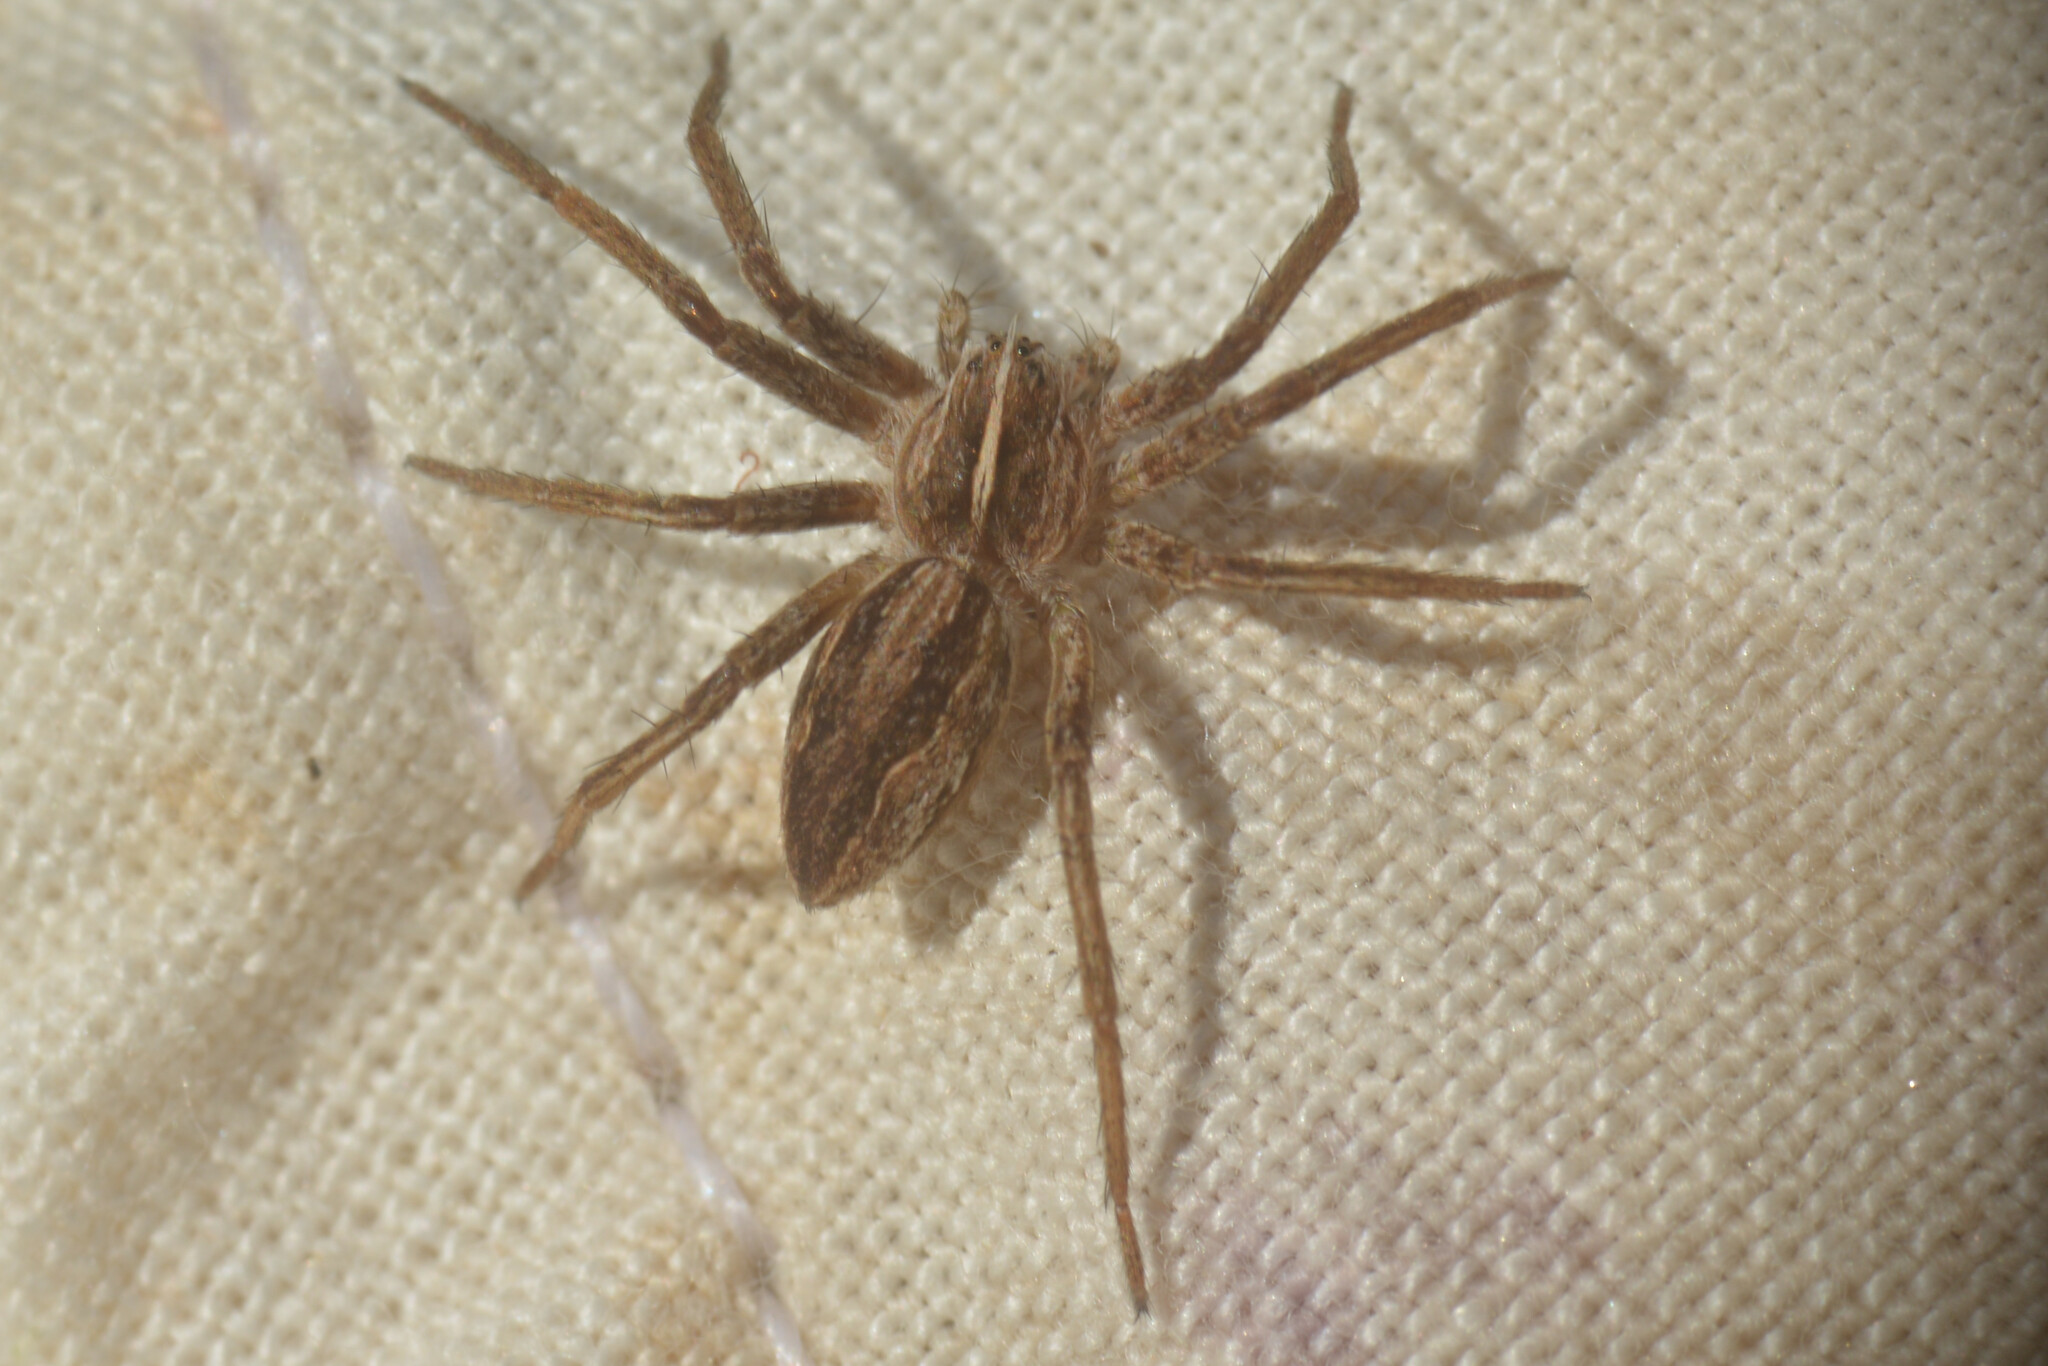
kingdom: Animalia
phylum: Arthropoda
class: Arachnida
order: Araneae
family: Pisauridae
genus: Pisaura
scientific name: Pisaura mirabilis
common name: Tent spider
